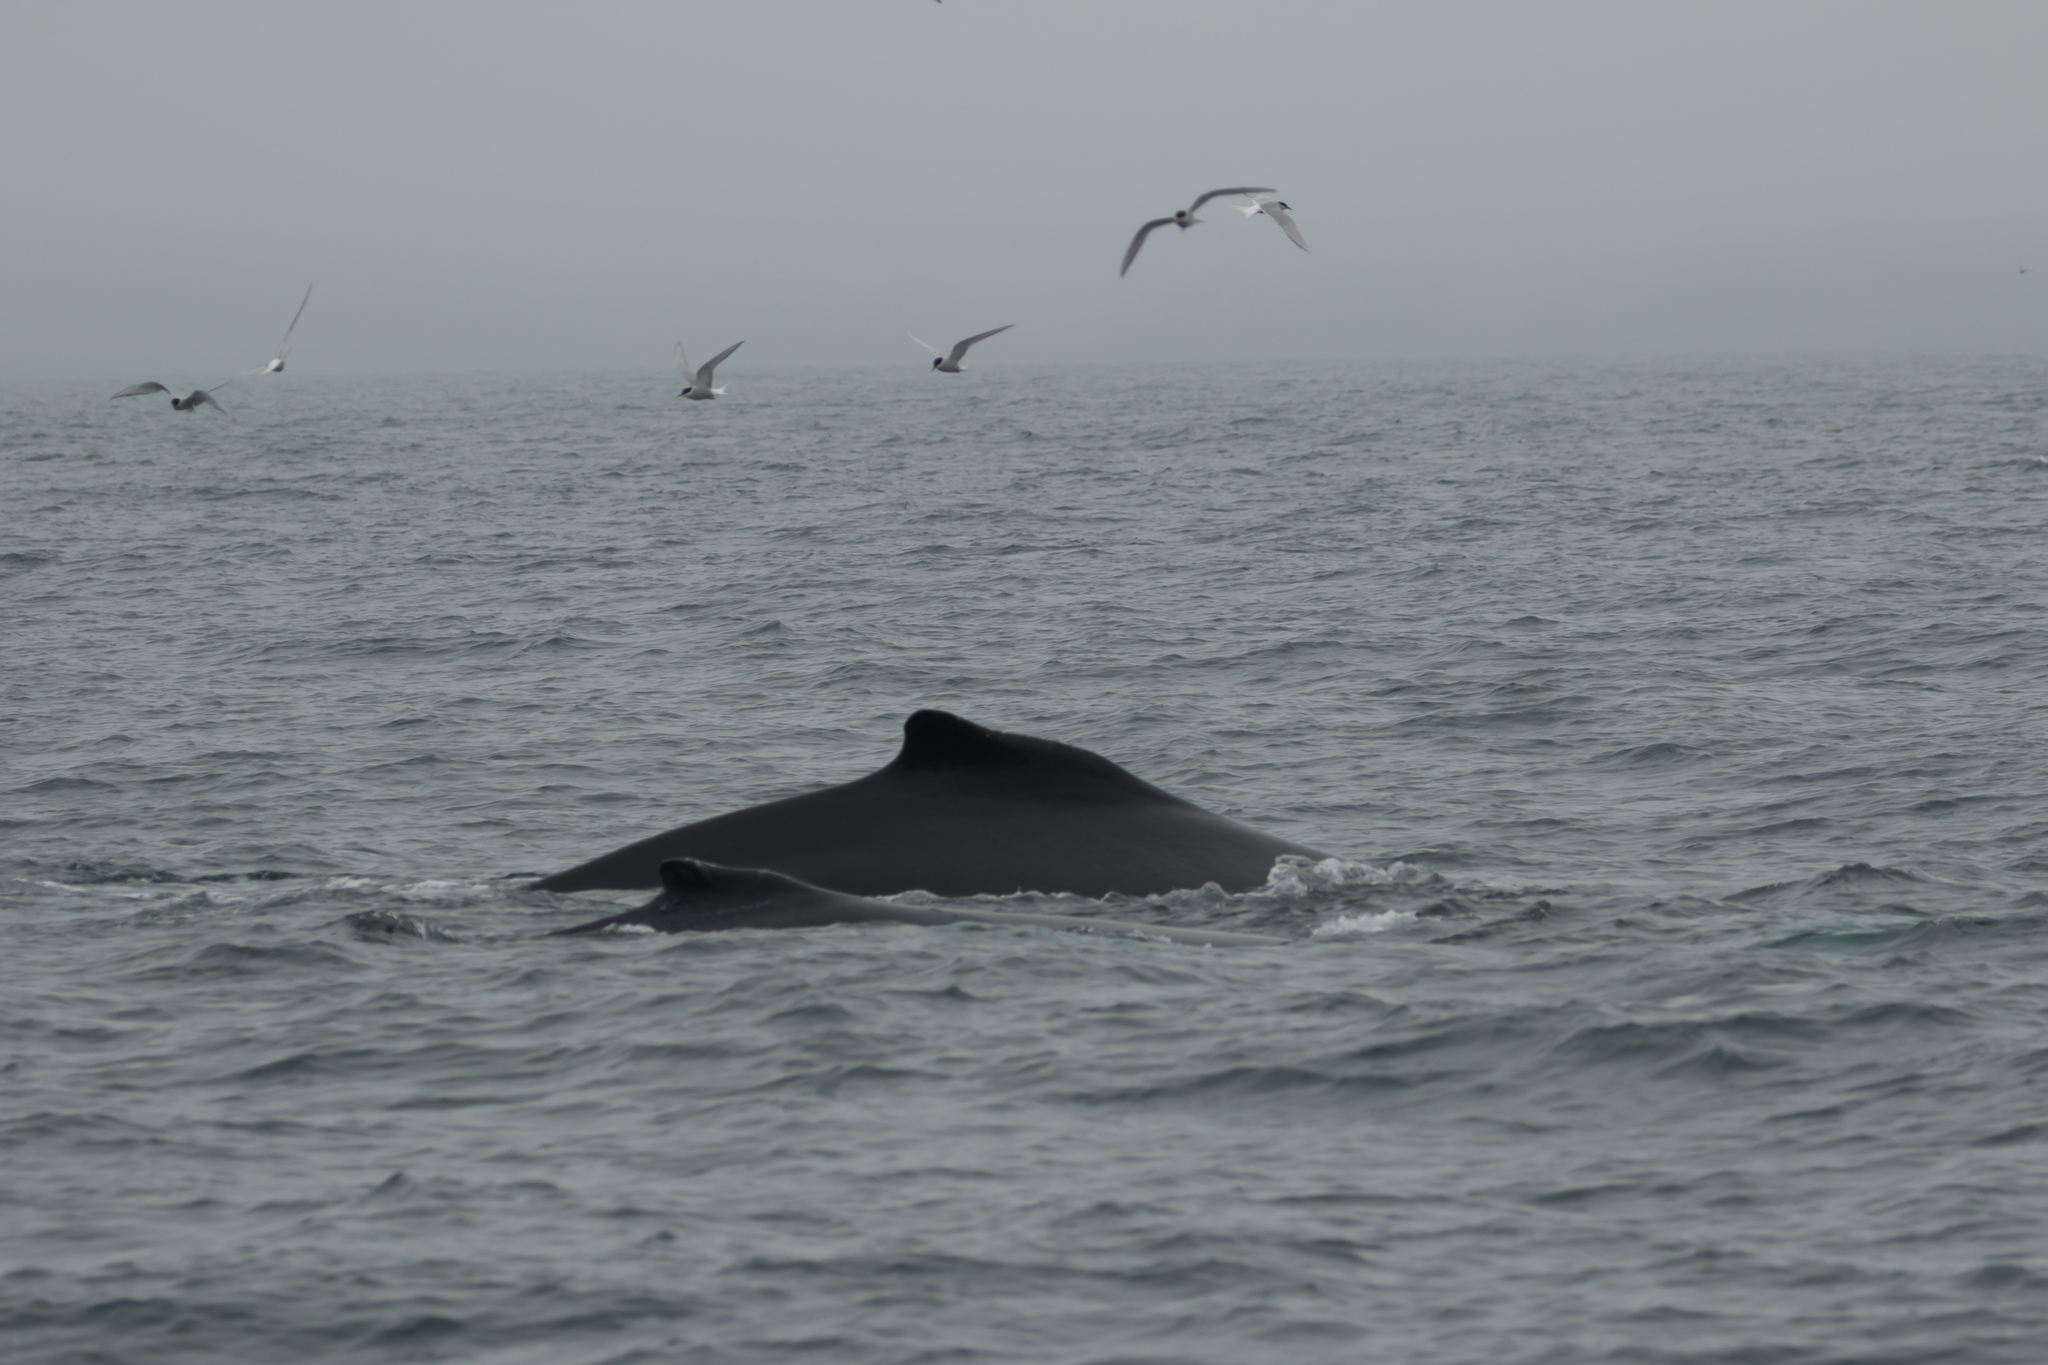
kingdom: Animalia
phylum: Chordata
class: Mammalia
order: Cetacea
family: Balaenopteridae
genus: Megaptera
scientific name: Megaptera novaeangliae
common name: Humpback whale
